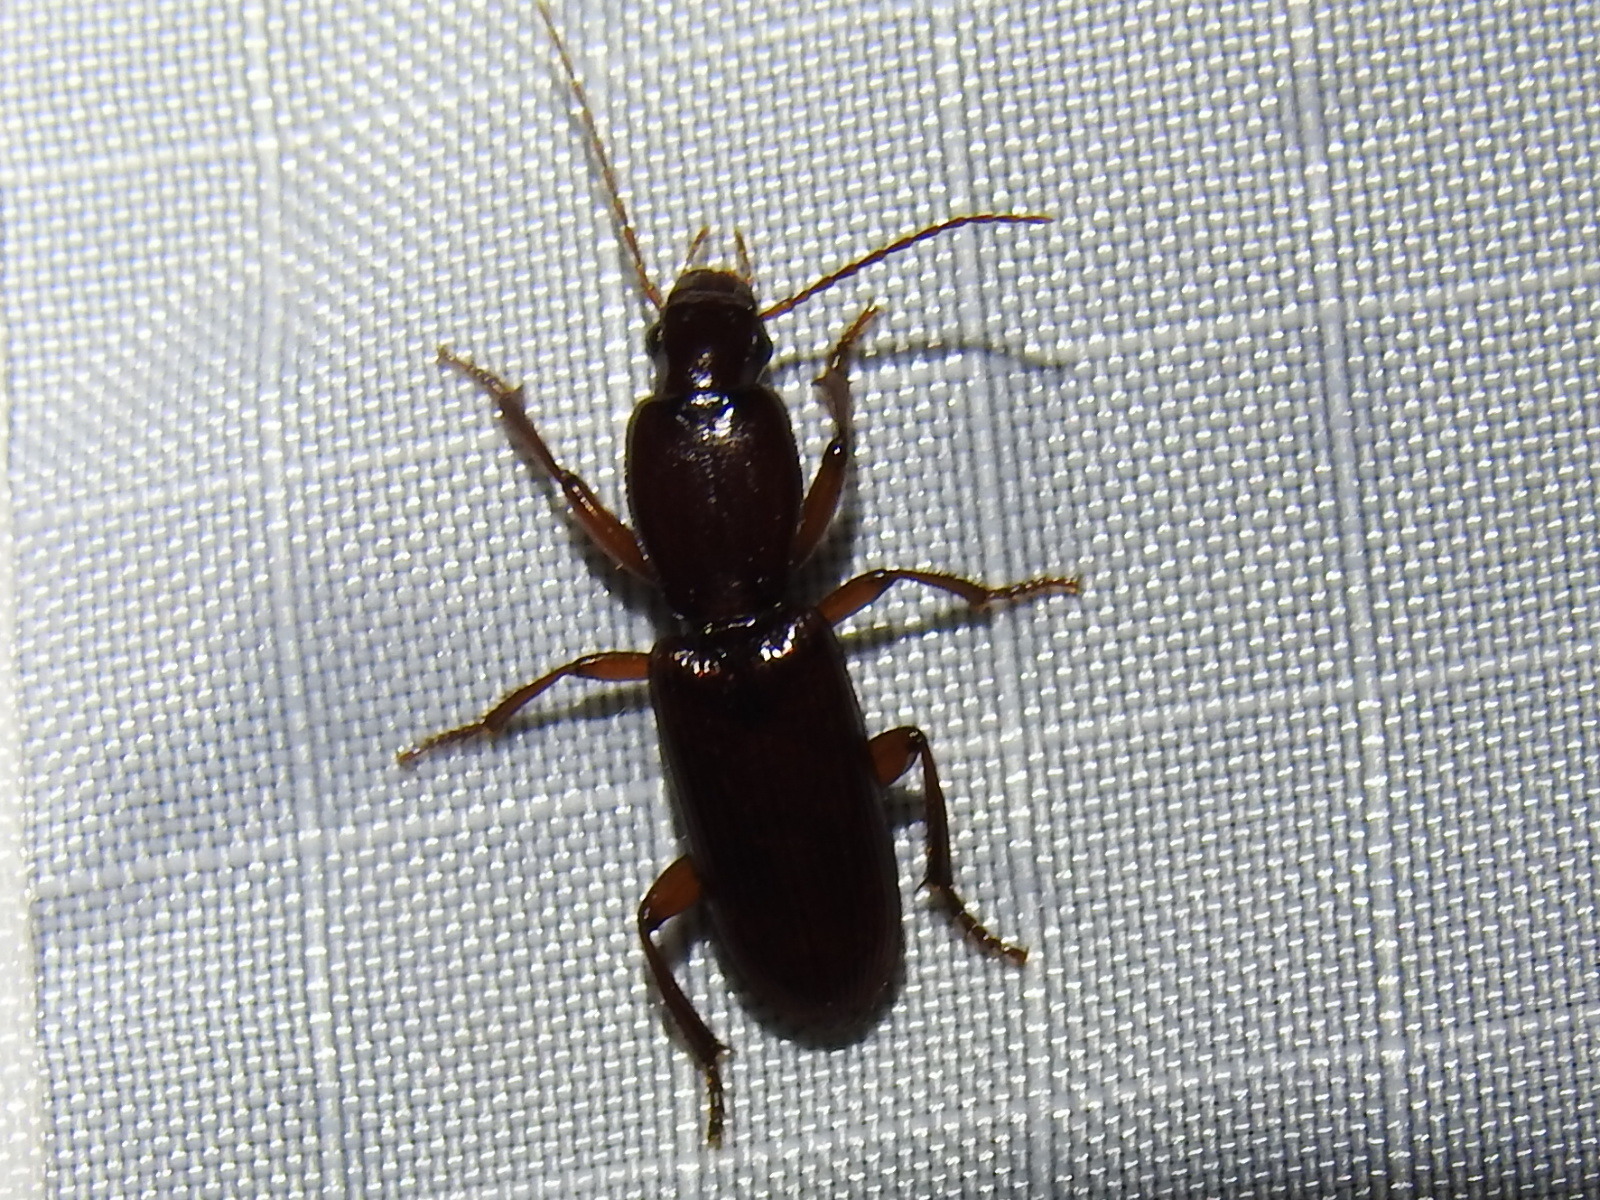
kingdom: Animalia
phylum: Arthropoda
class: Insecta
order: Coleoptera
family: Carabidae
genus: Stenomorphus
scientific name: Stenomorphus californicus
